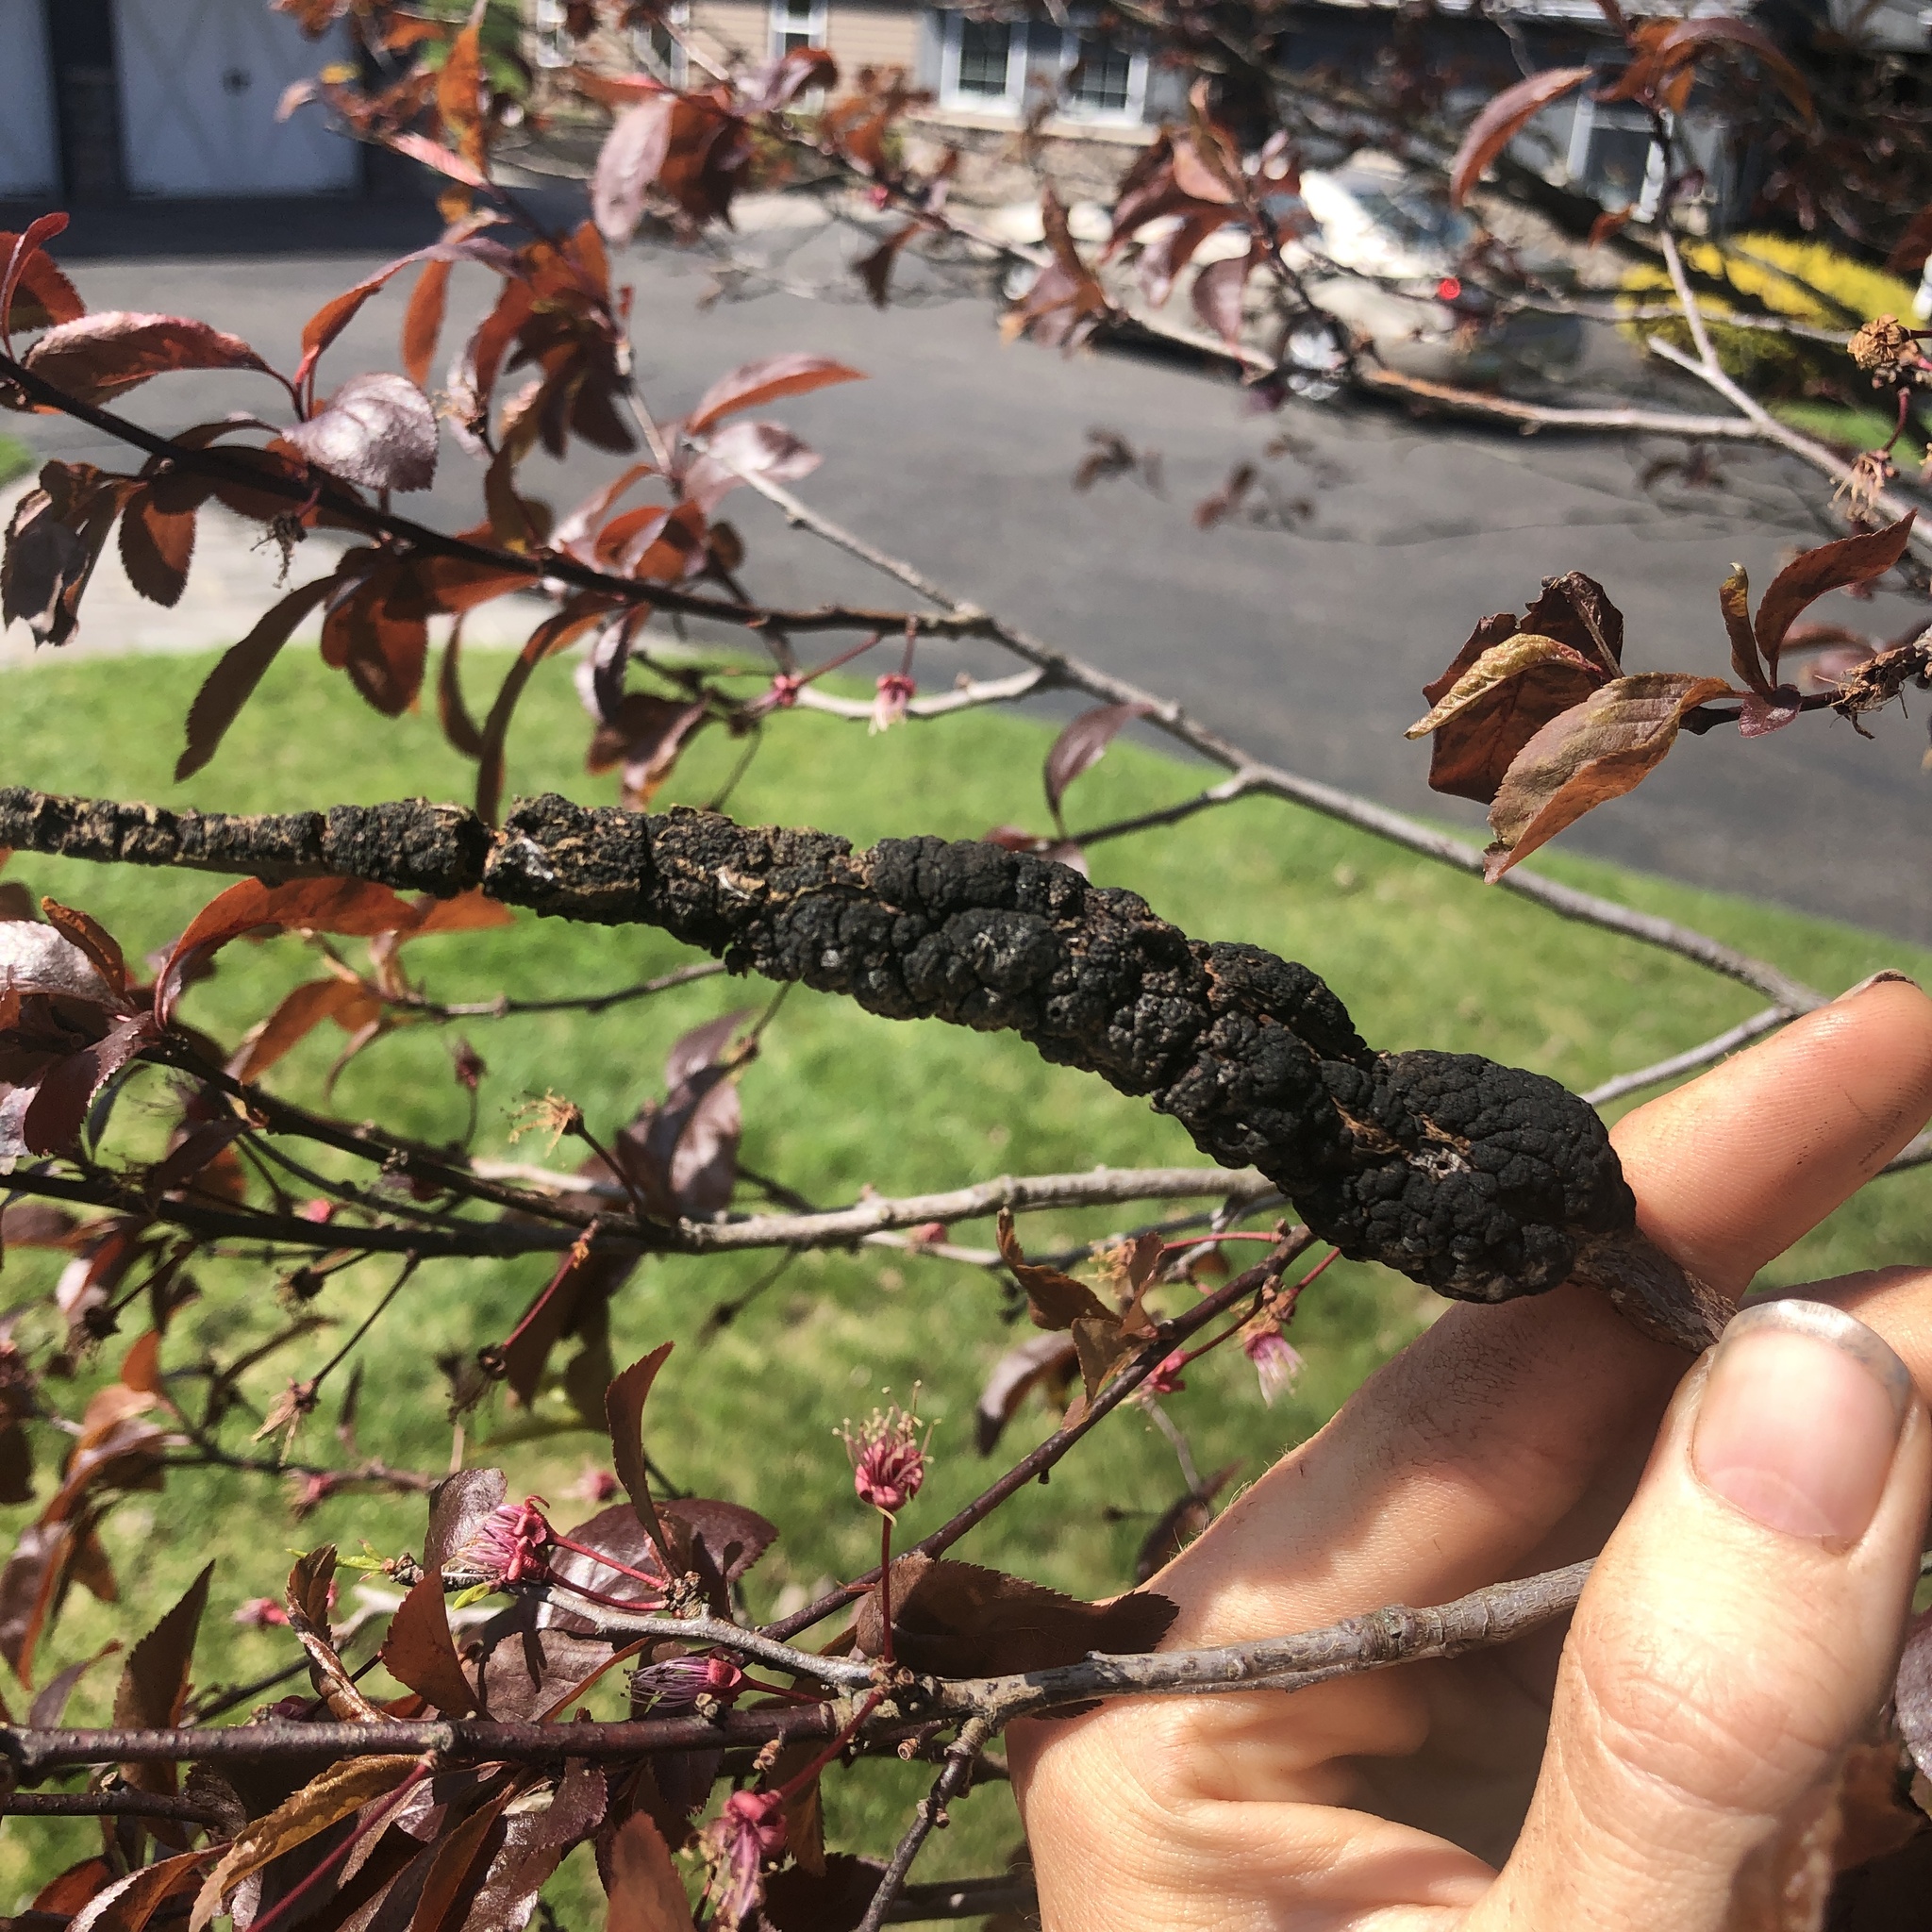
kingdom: Fungi
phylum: Ascomycota
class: Dothideomycetes
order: Venturiales
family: Venturiaceae
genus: Apiosporina
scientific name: Apiosporina morbosa
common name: Black knot
